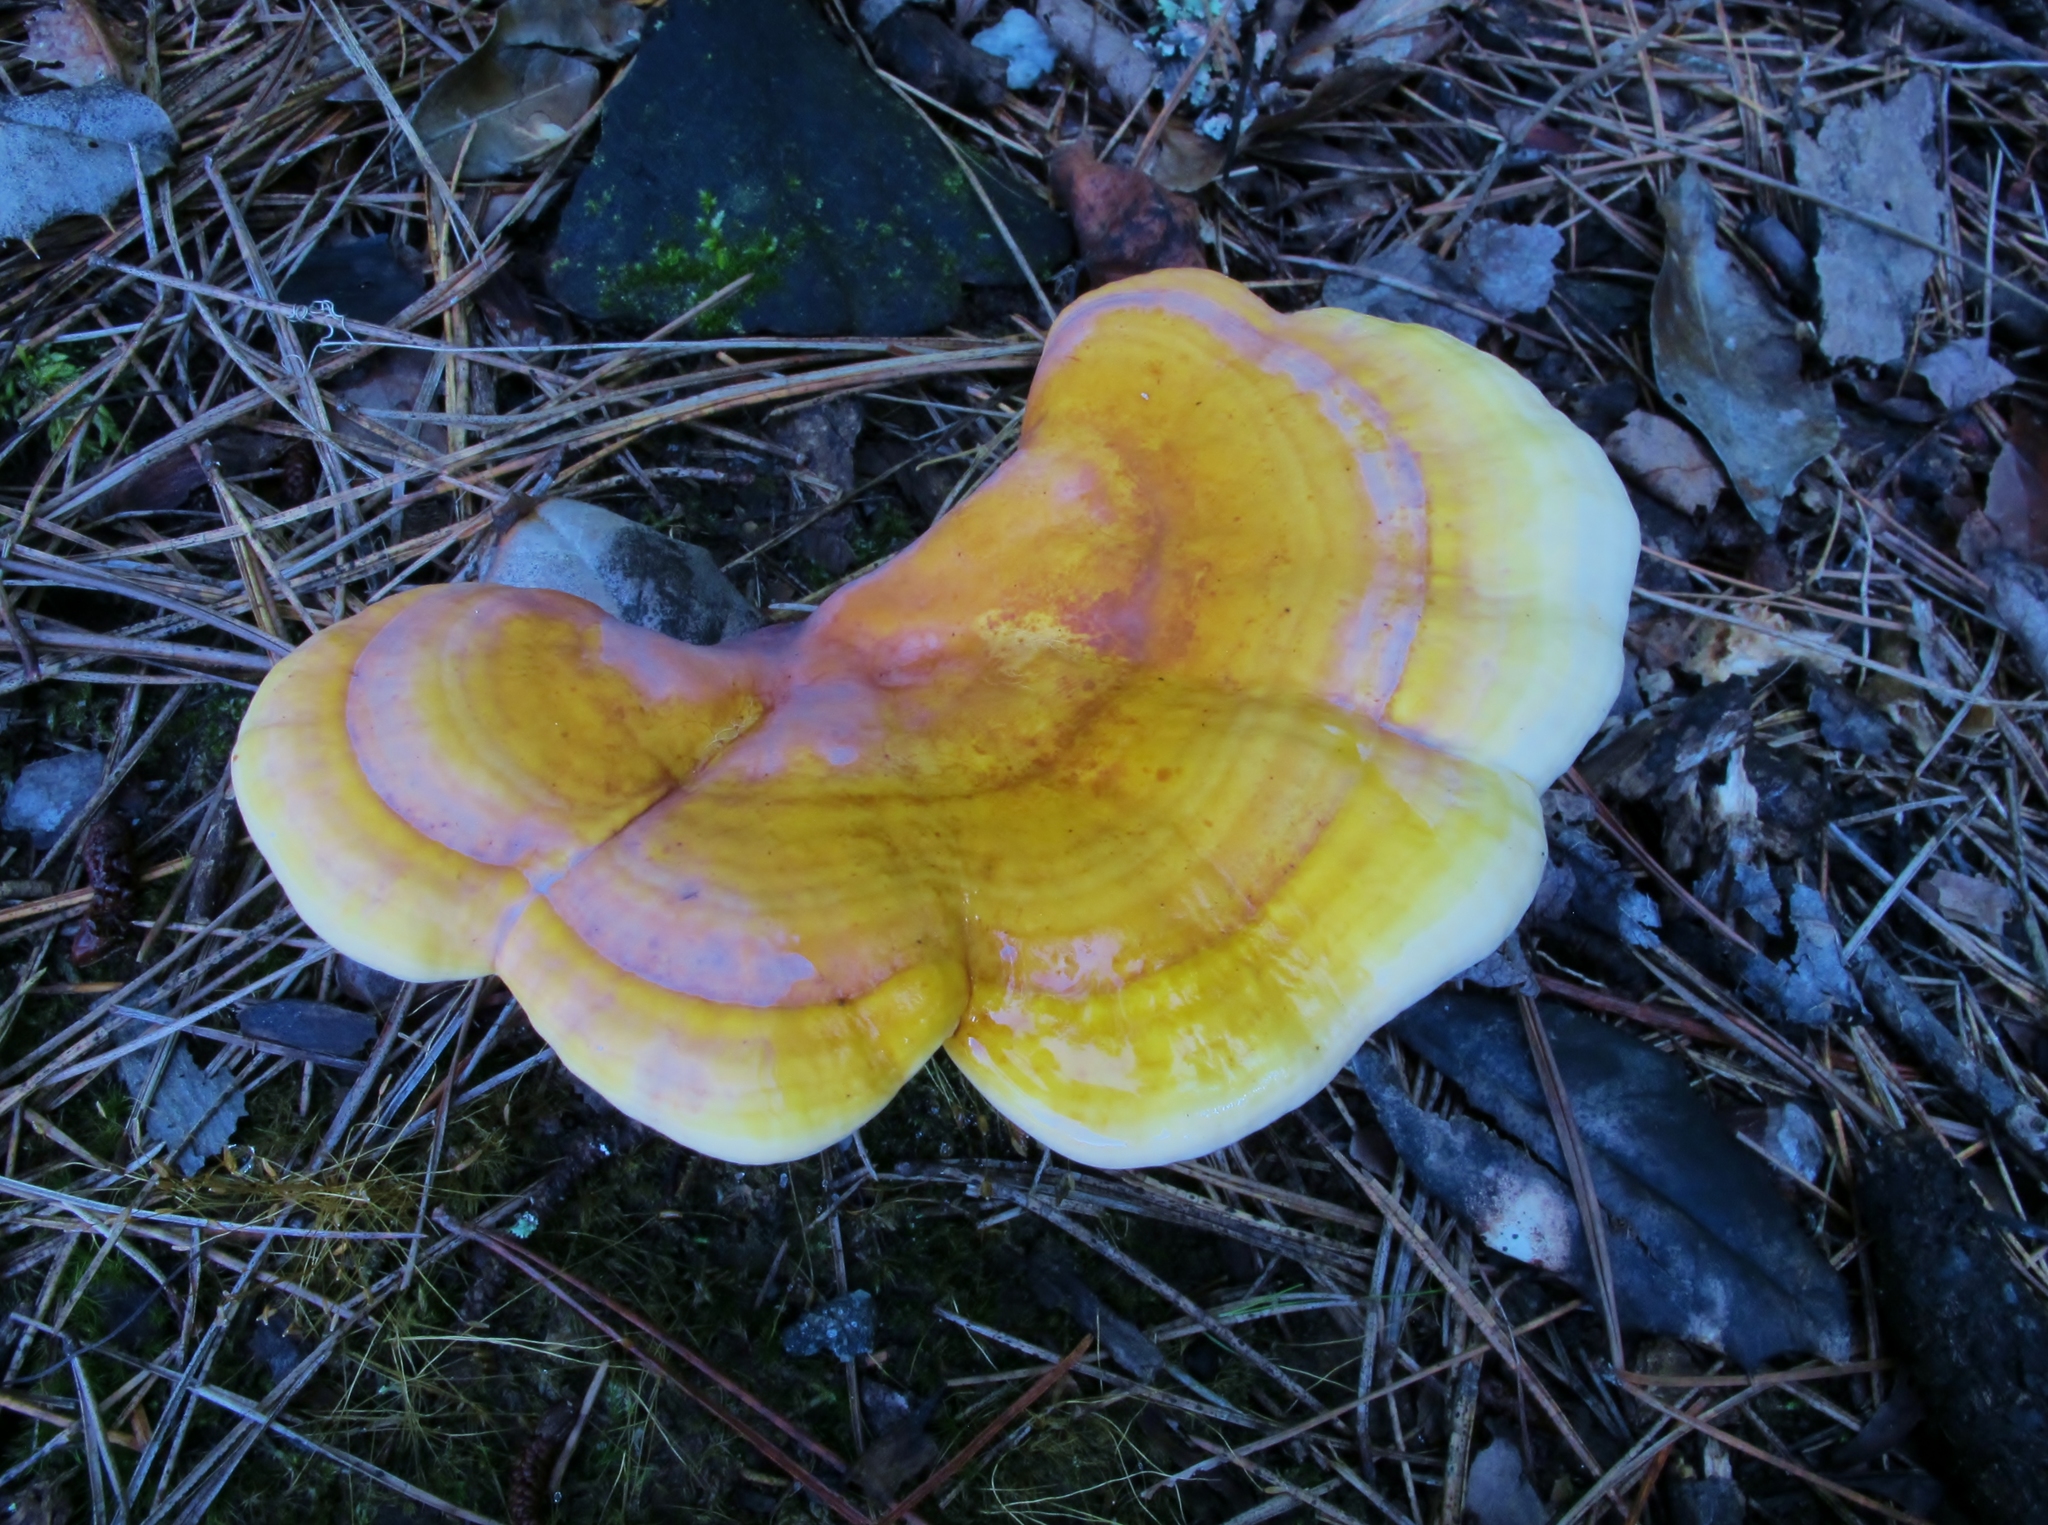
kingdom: Fungi
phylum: Basidiomycota
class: Agaricomycetes
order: Polyporales
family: Polyporaceae
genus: Ganoderma
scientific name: Ganoderma curtisii
